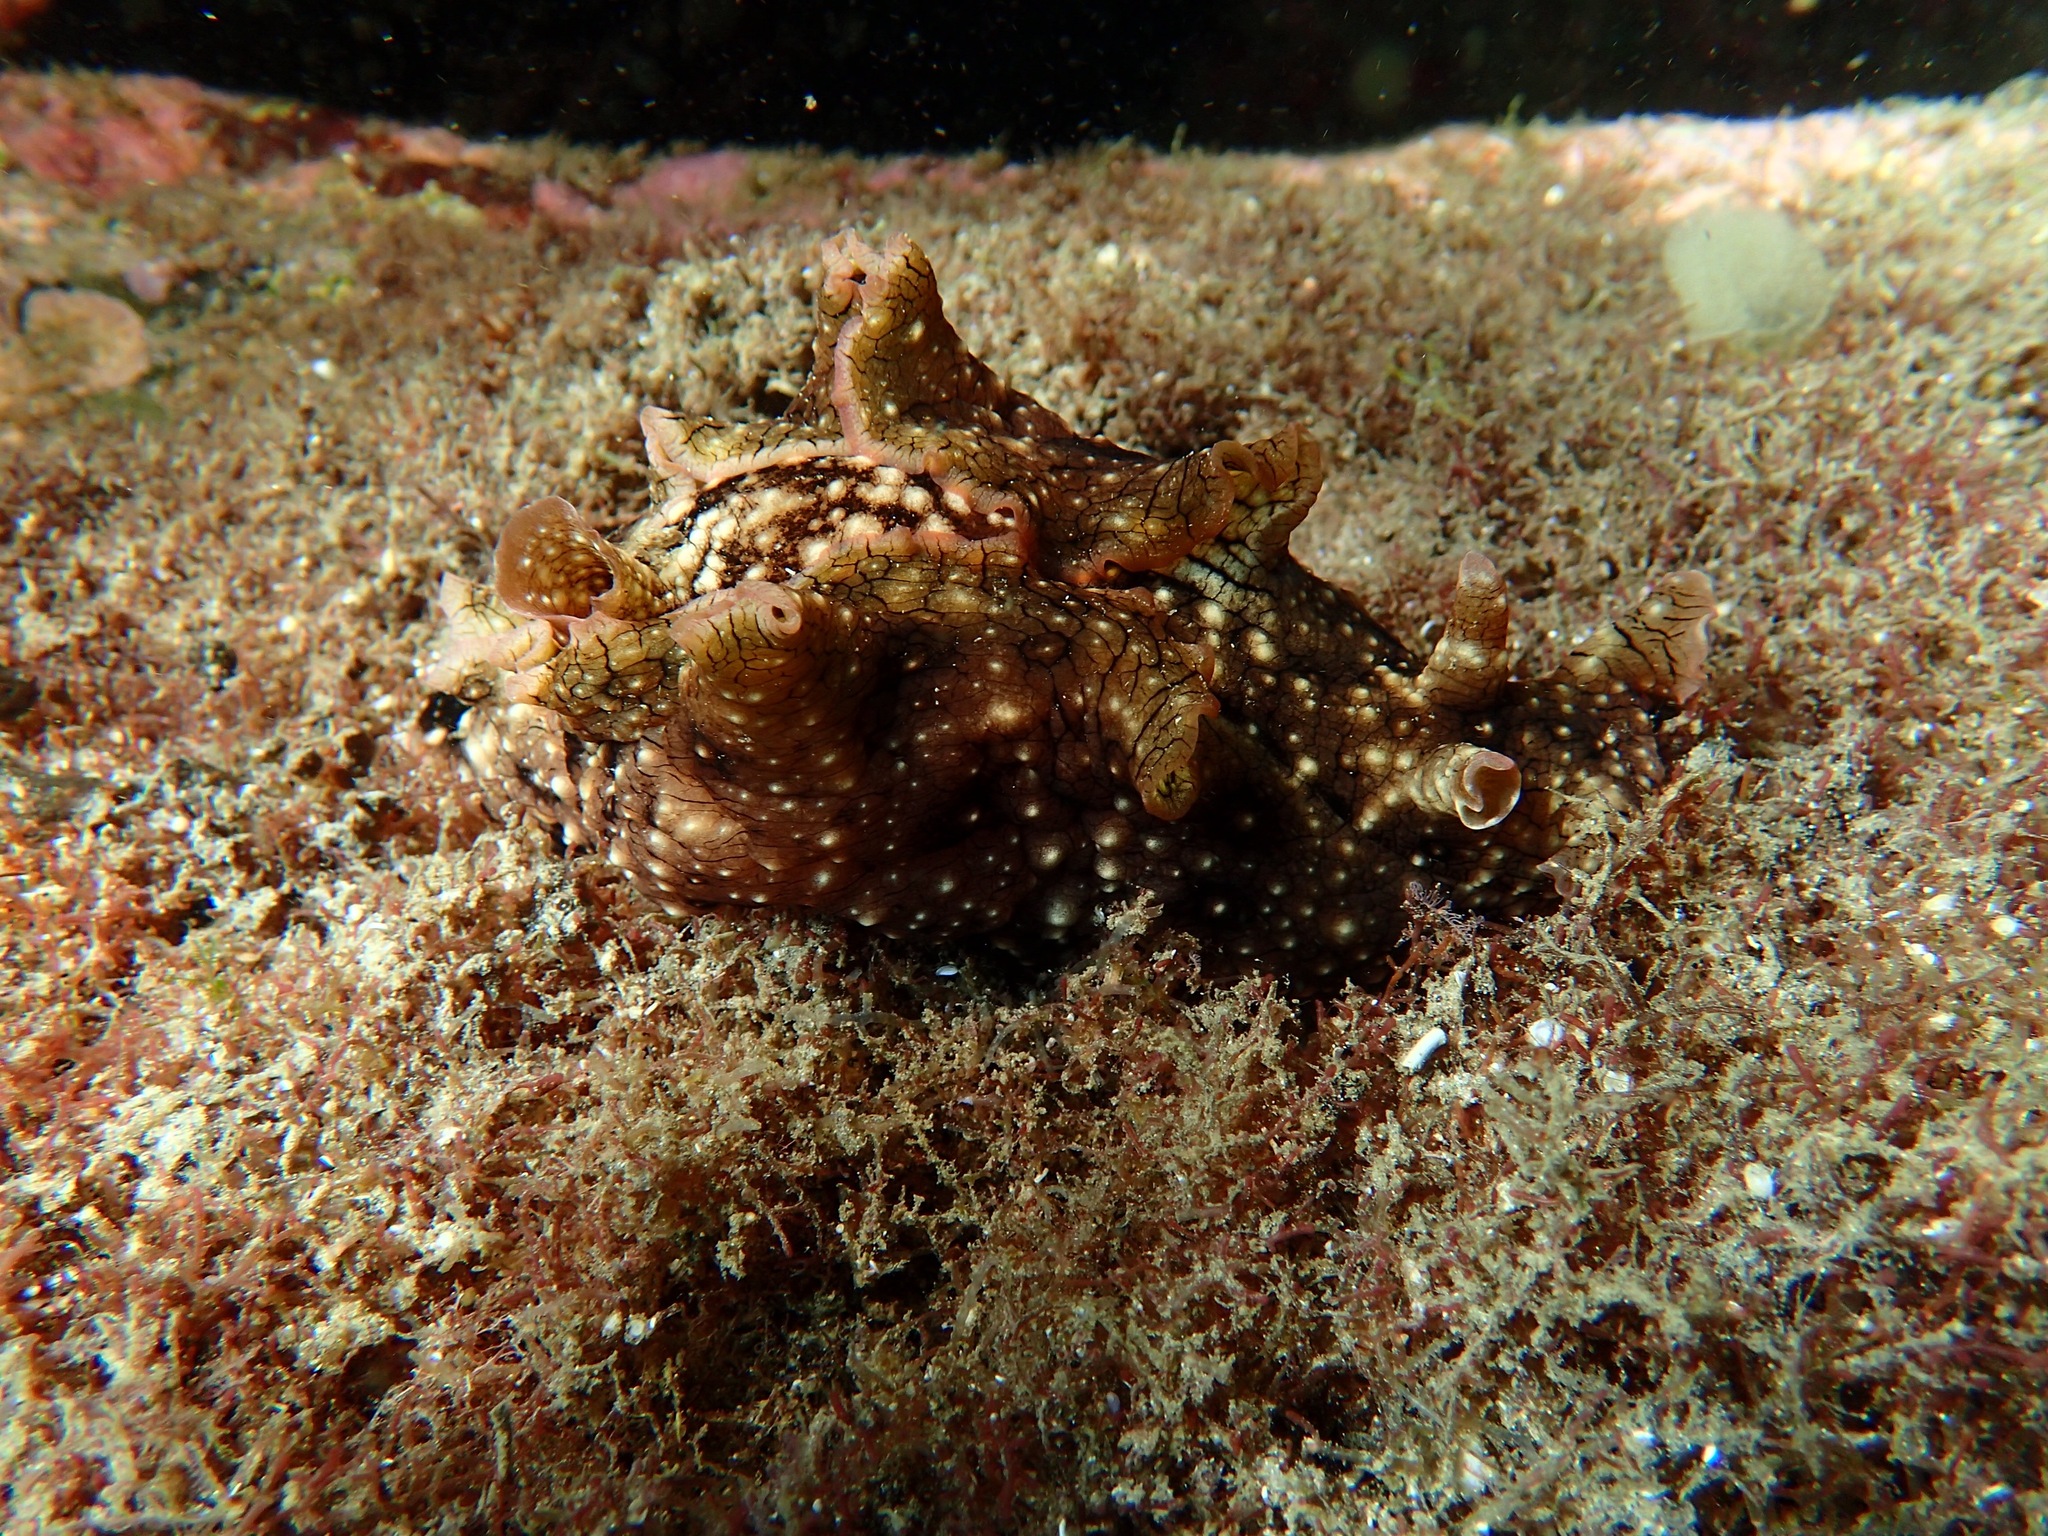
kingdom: Animalia
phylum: Mollusca
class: Gastropoda
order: Aplysiida
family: Aplysiidae
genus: Aplysia
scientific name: Aplysia argus
